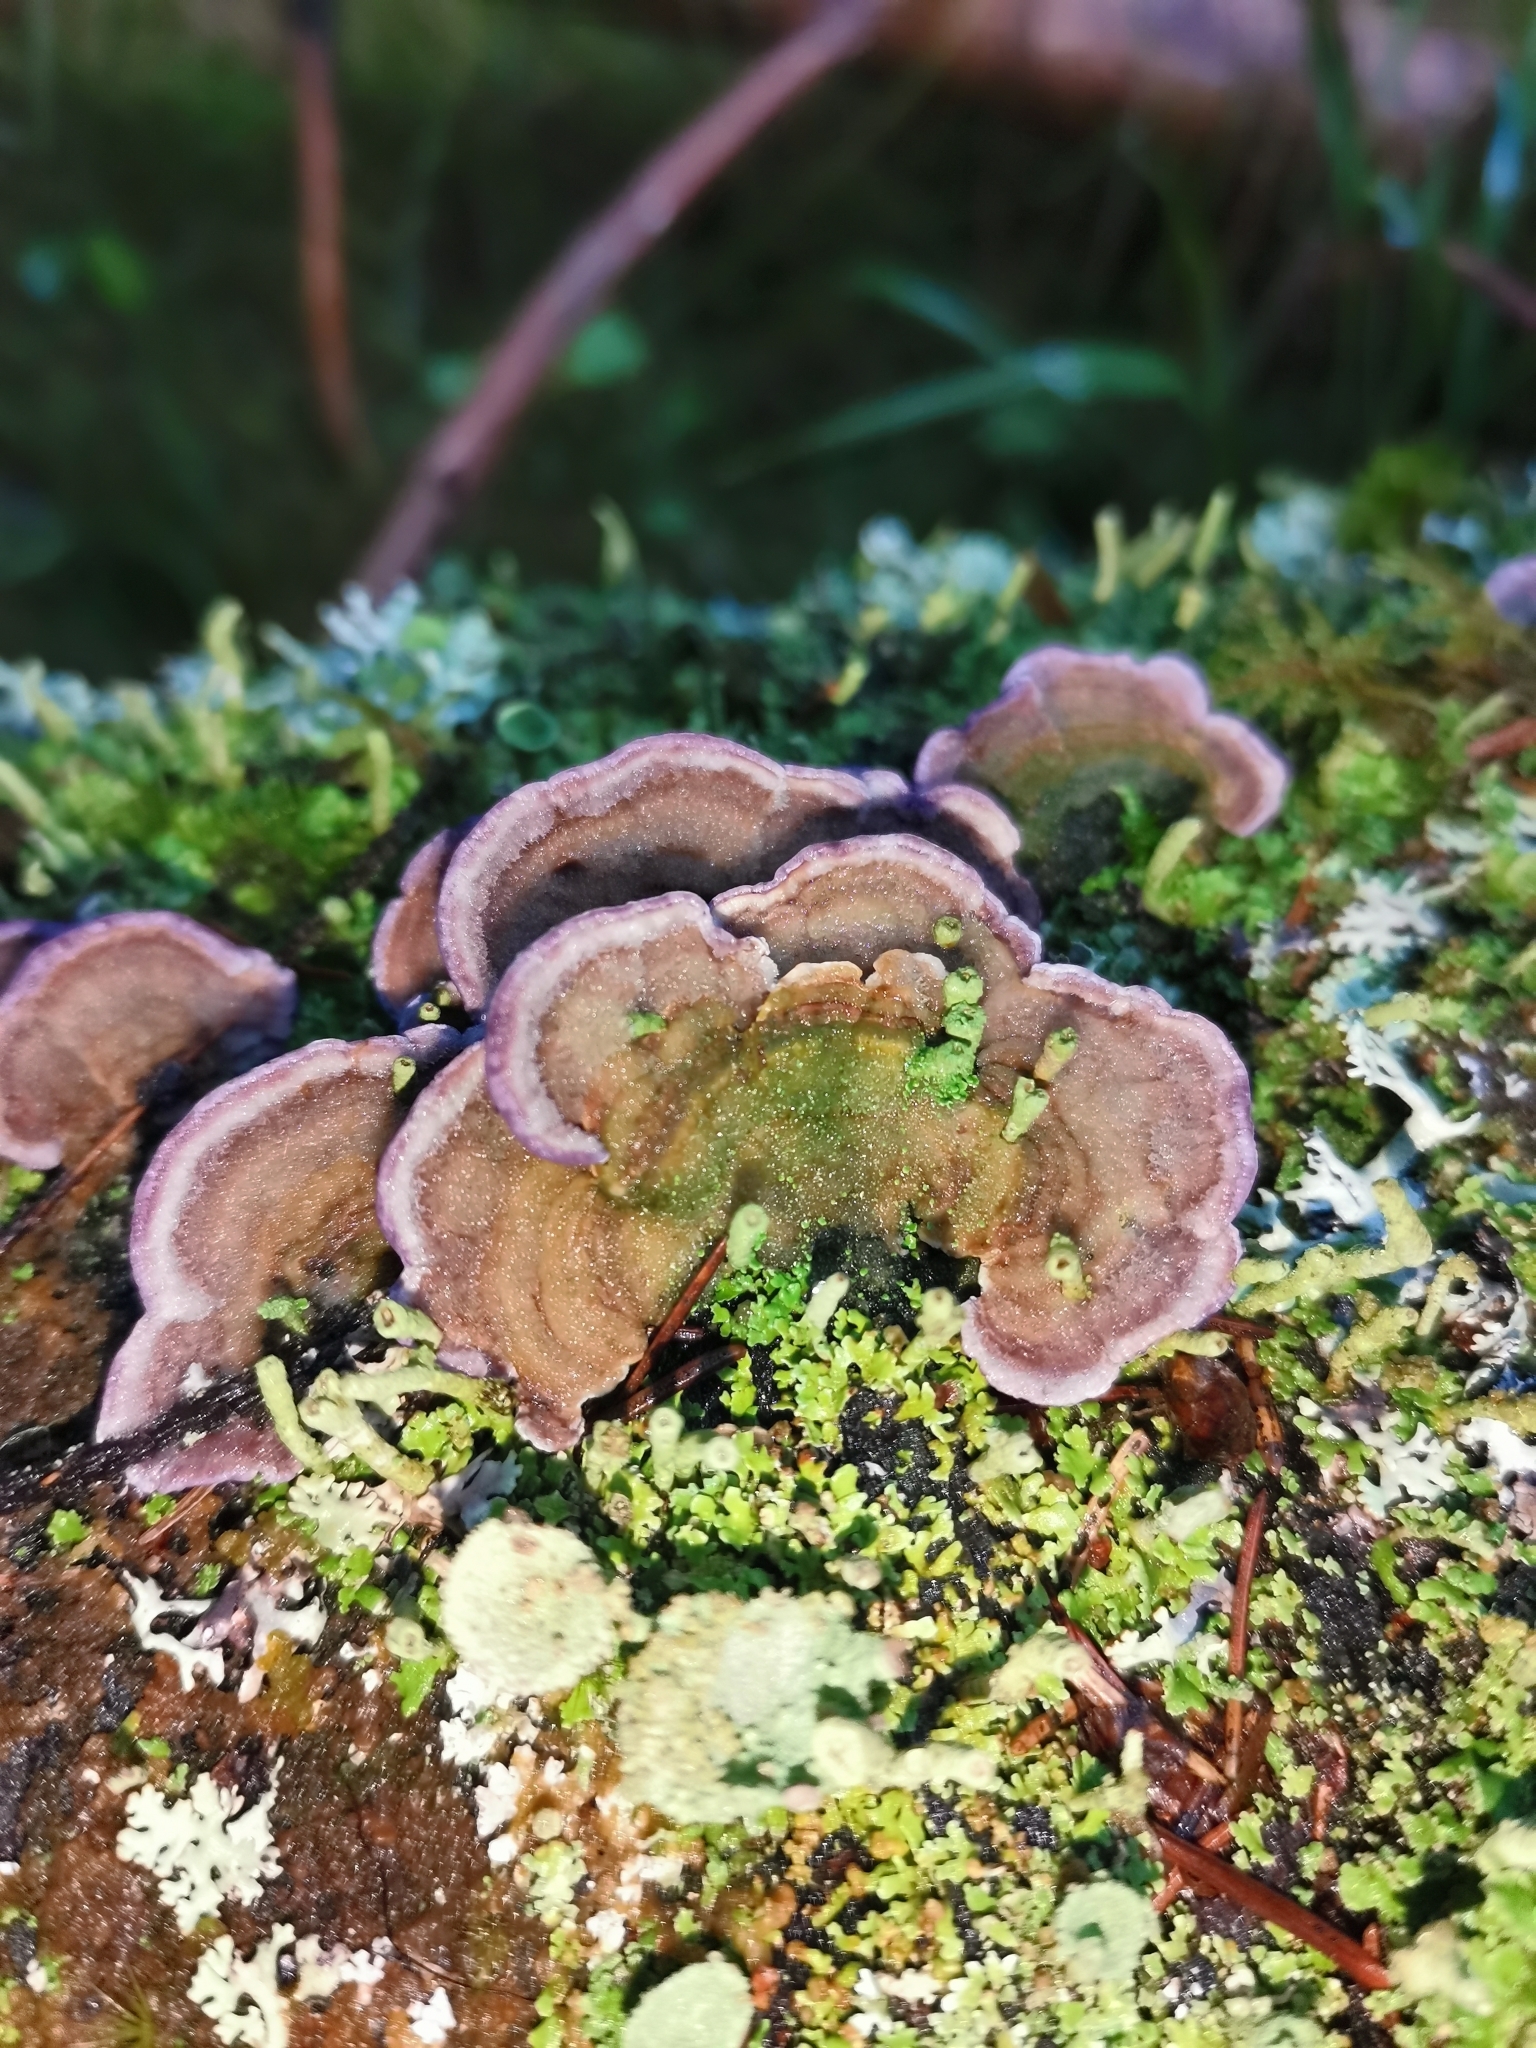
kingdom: Fungi
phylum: Basidiomycota
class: Agaricomycetes
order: Hymenochaetales
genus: Trichaptum
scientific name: Trichaptum abietinum
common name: Purplepore bracket
